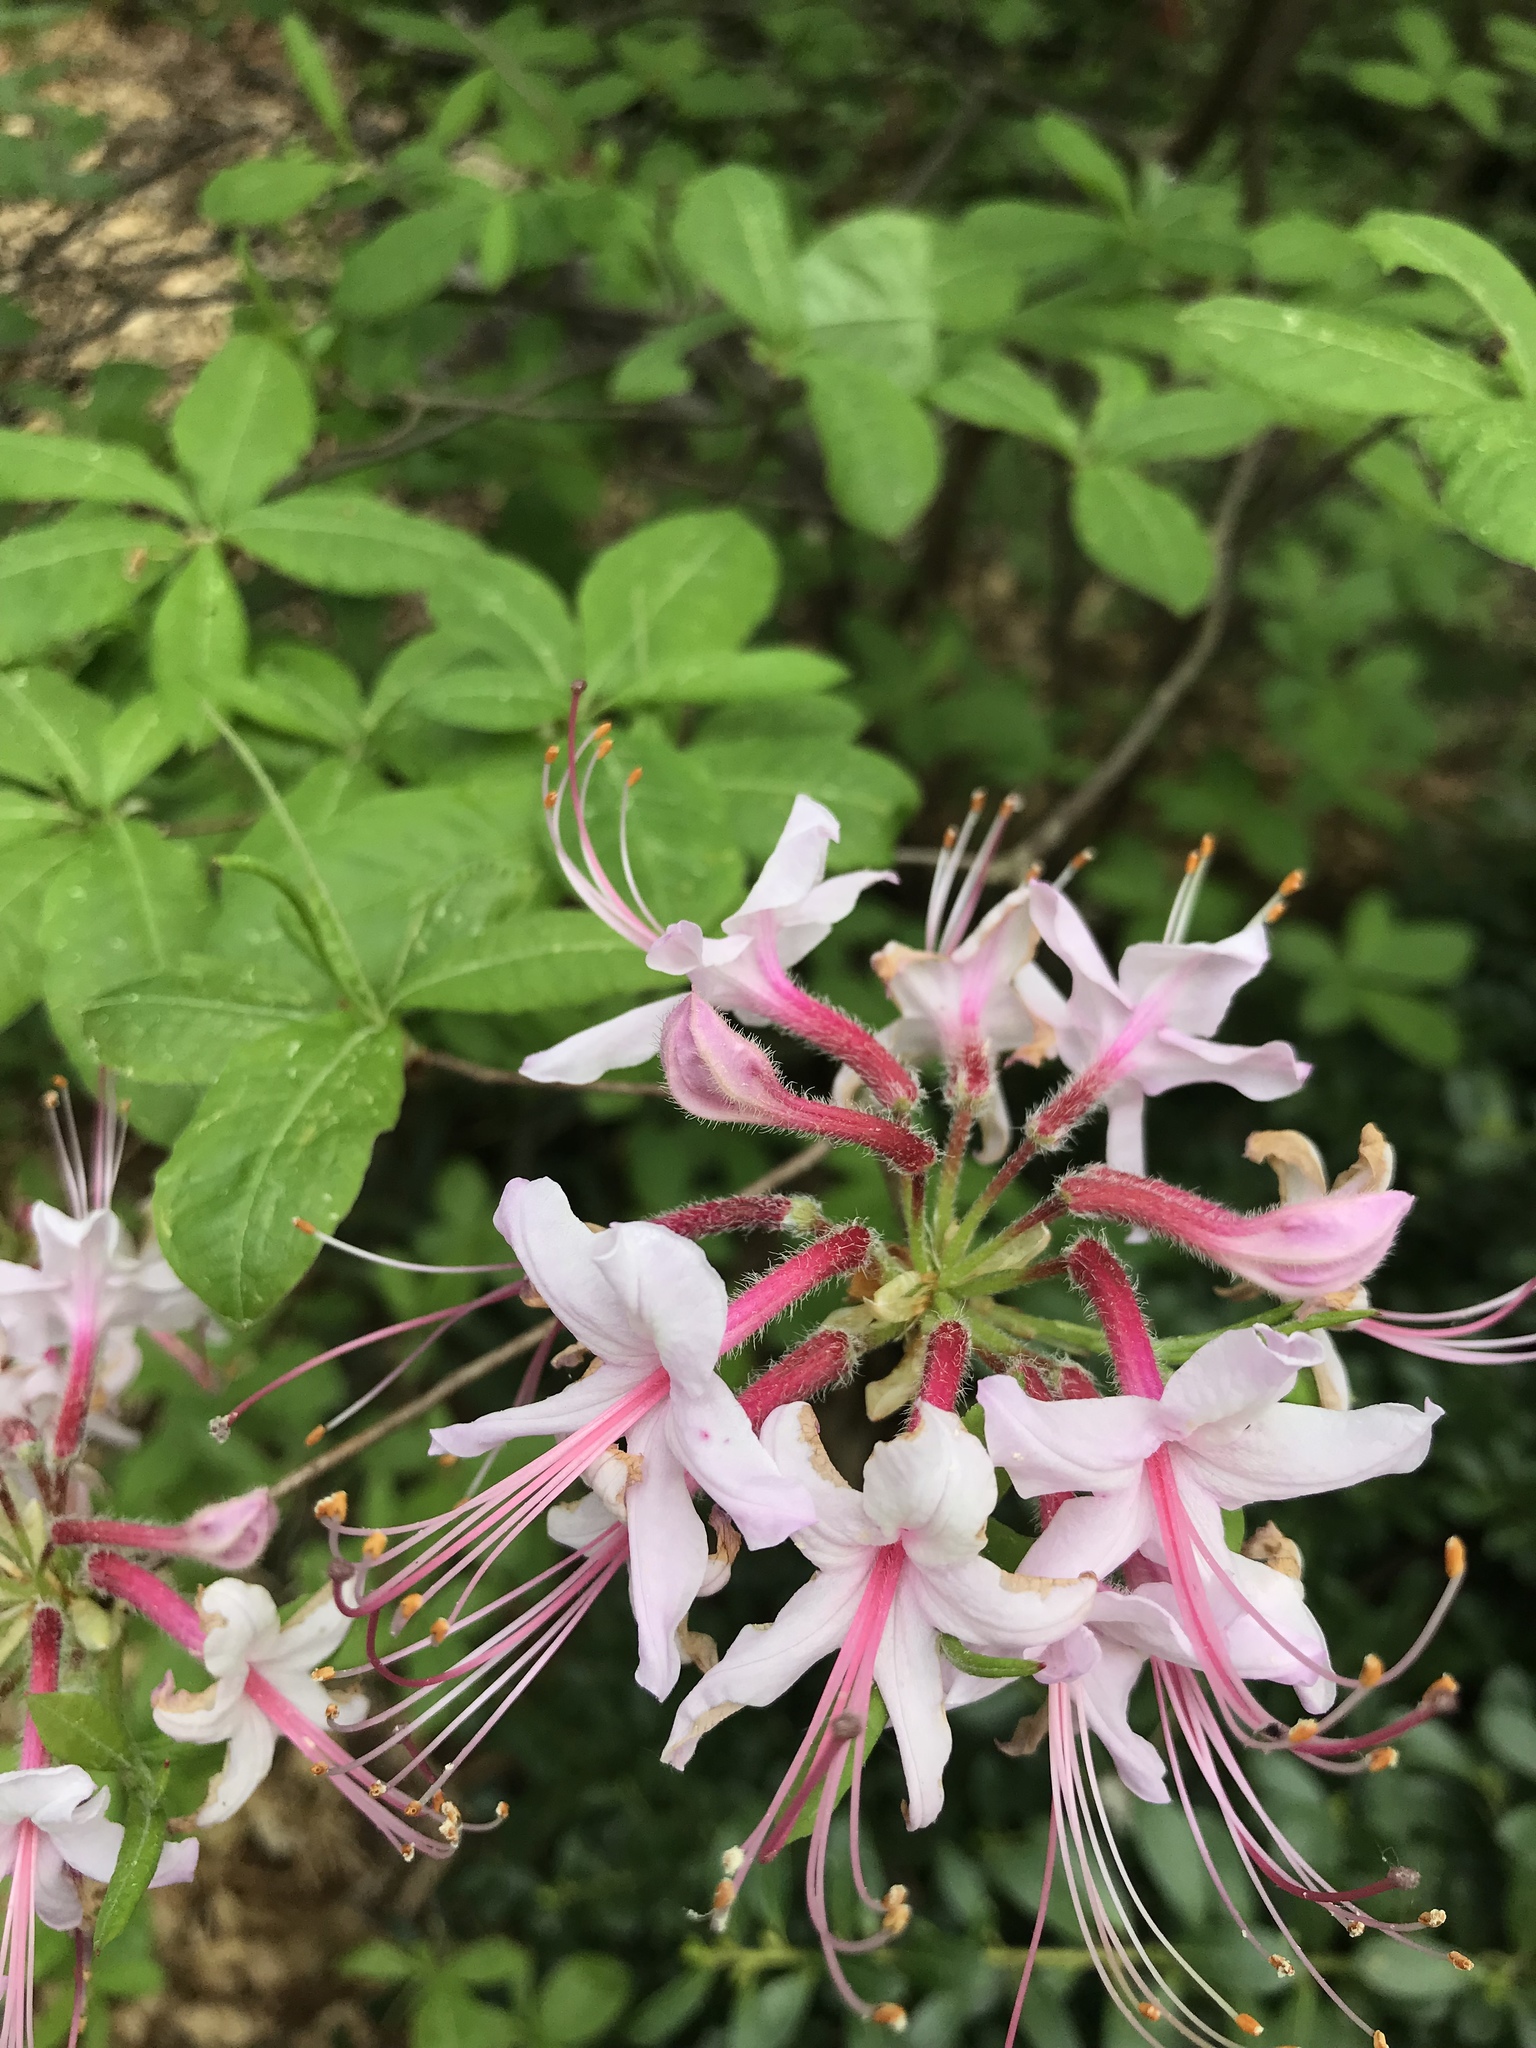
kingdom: Plantae
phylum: Tracheophyta
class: Magnoliopsida
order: Ericales
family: Ericaceae
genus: Rhododendron
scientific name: Rhododendron periclymenoides
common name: Election-pink
